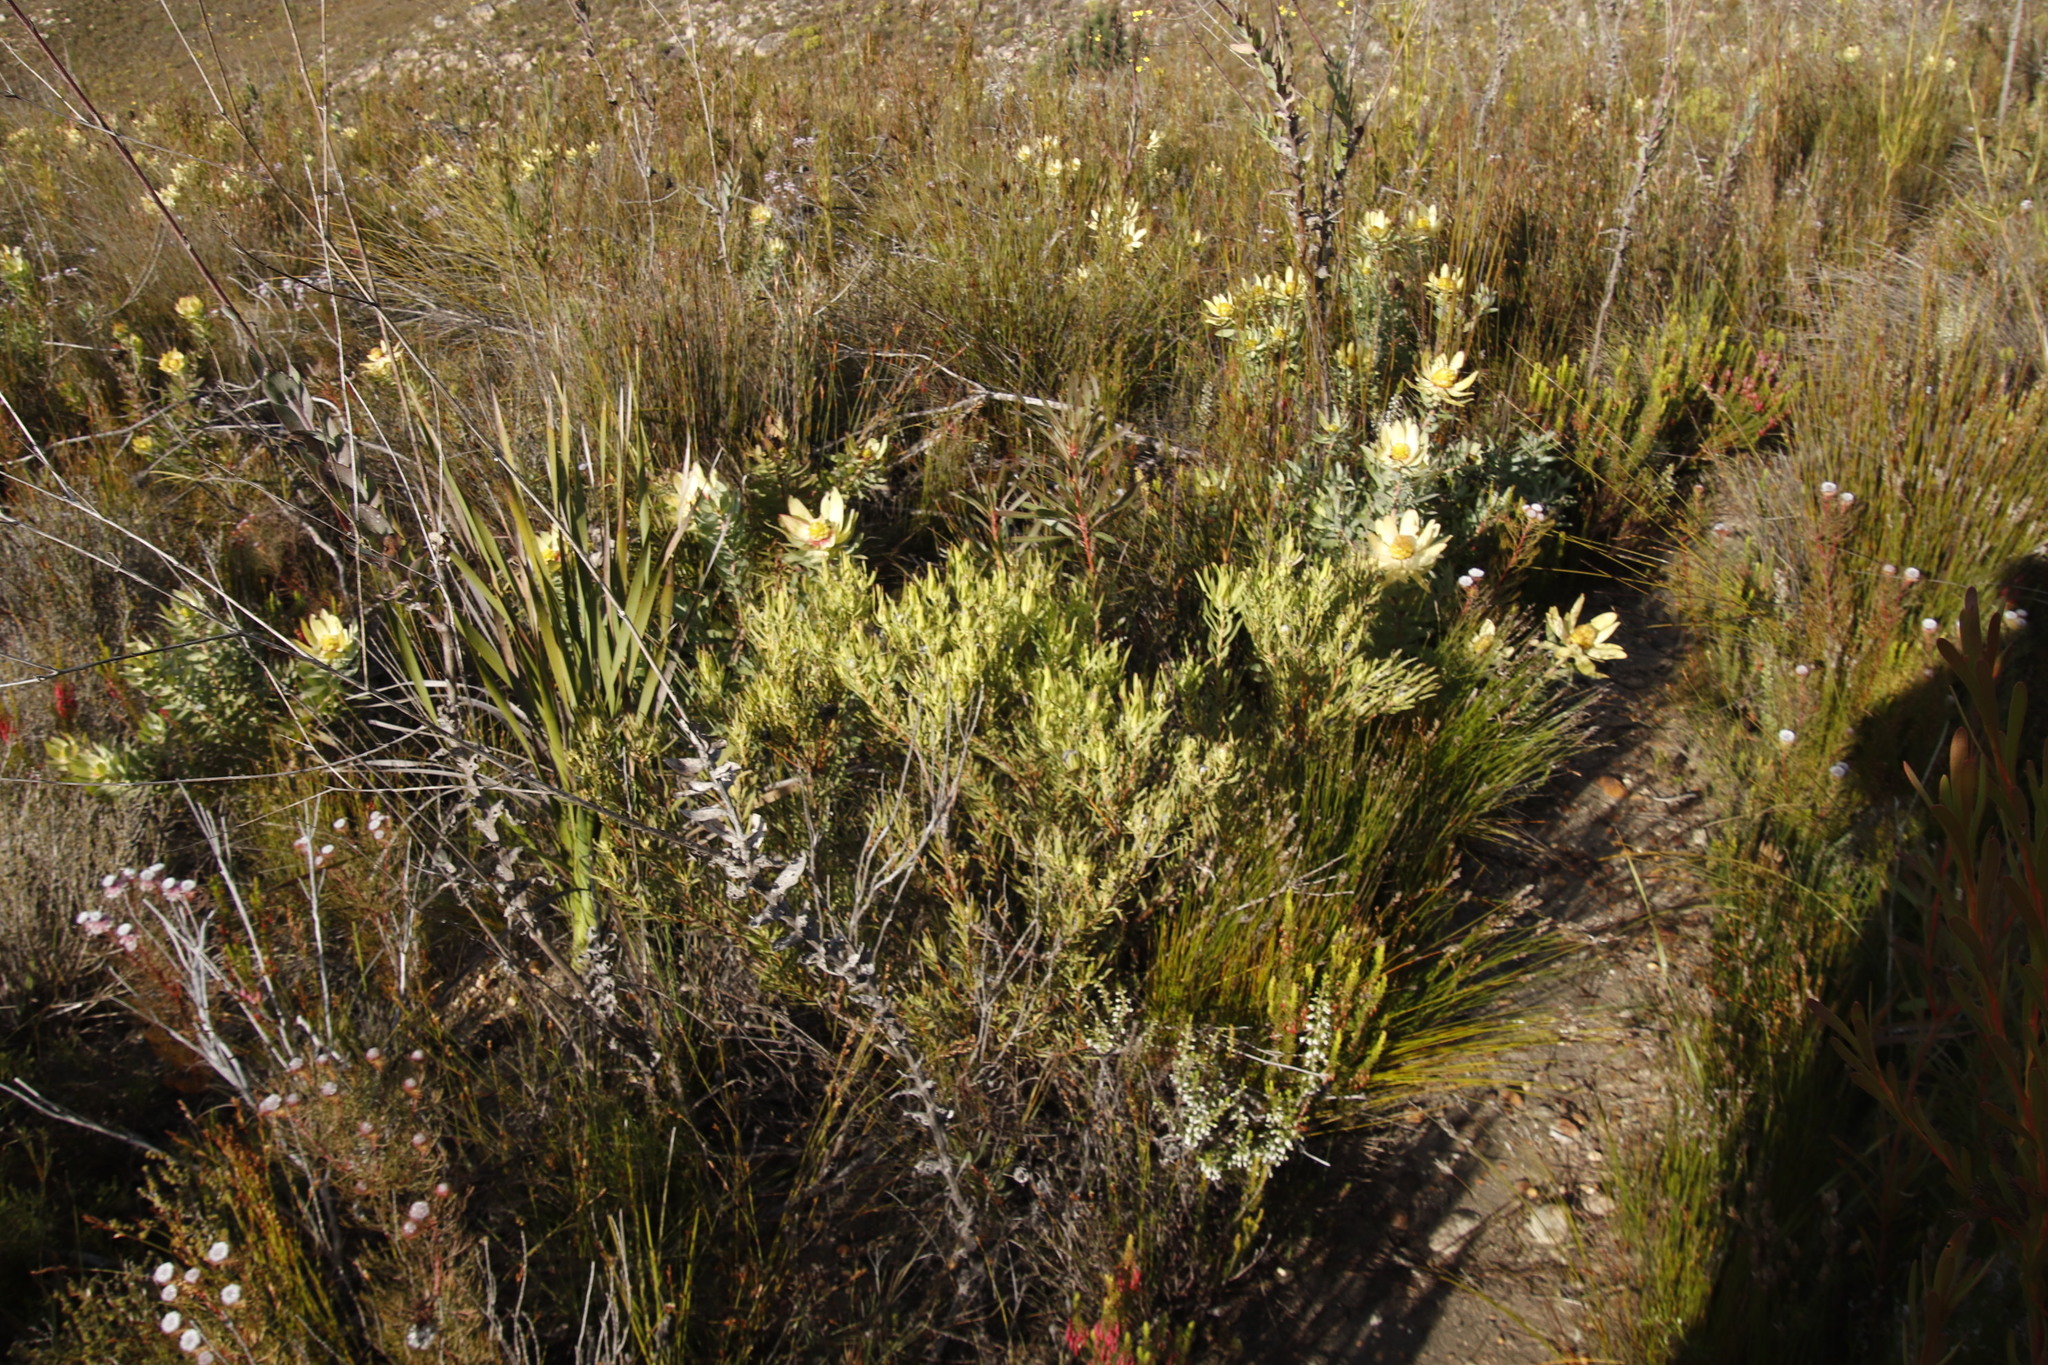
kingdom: Plantae
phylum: Tracheophyta
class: Magnoliopsida
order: Proteales
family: Proteaceae
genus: Leucadendron
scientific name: Leucadendron xanthoconus
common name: Sickle-leaf conebush
